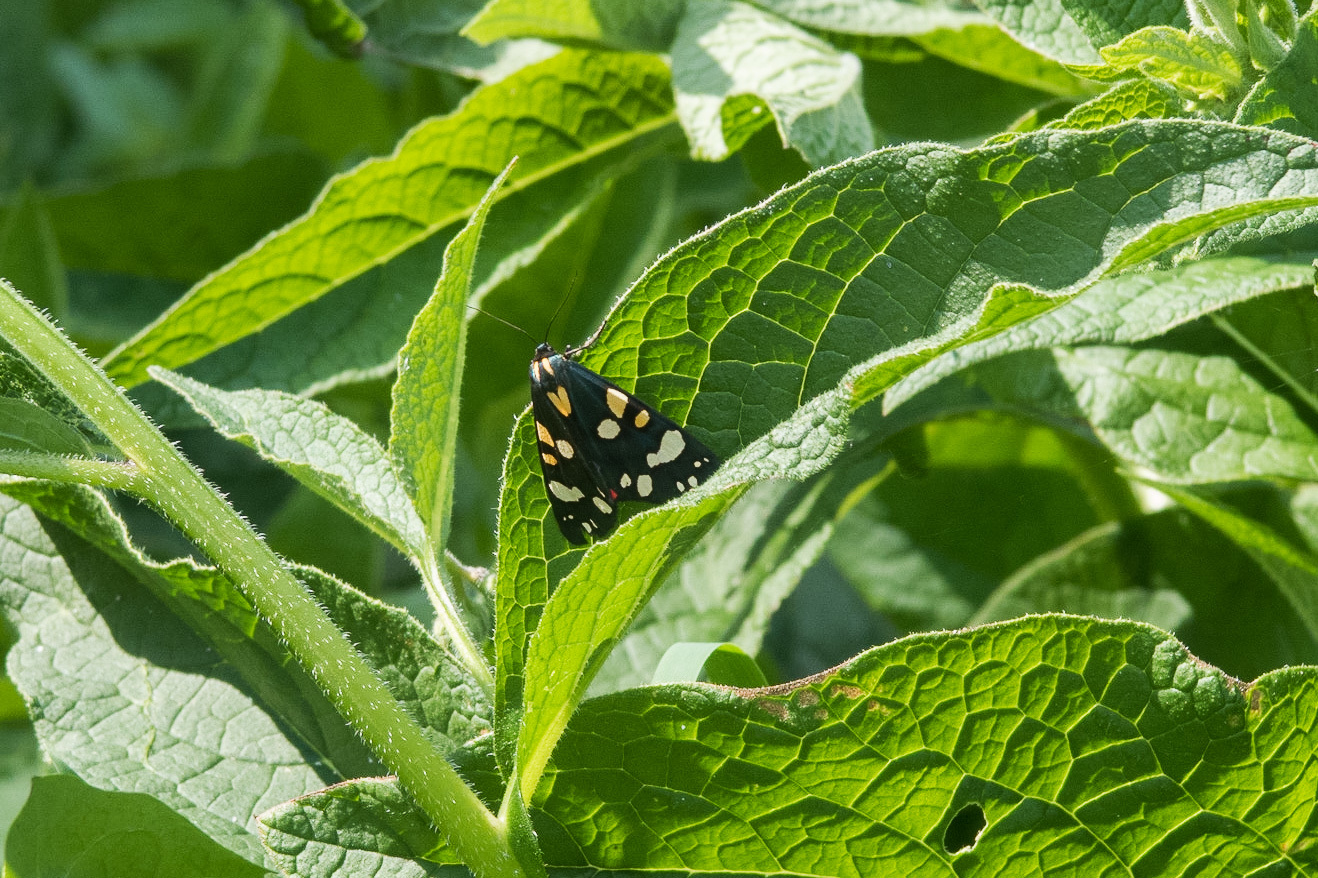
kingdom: Animalia
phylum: Arthropoda
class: Insecta
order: Lepidoptera
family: Erebidae
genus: Callimorpha
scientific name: Callimorpha dominula
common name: Scarlet tiger
